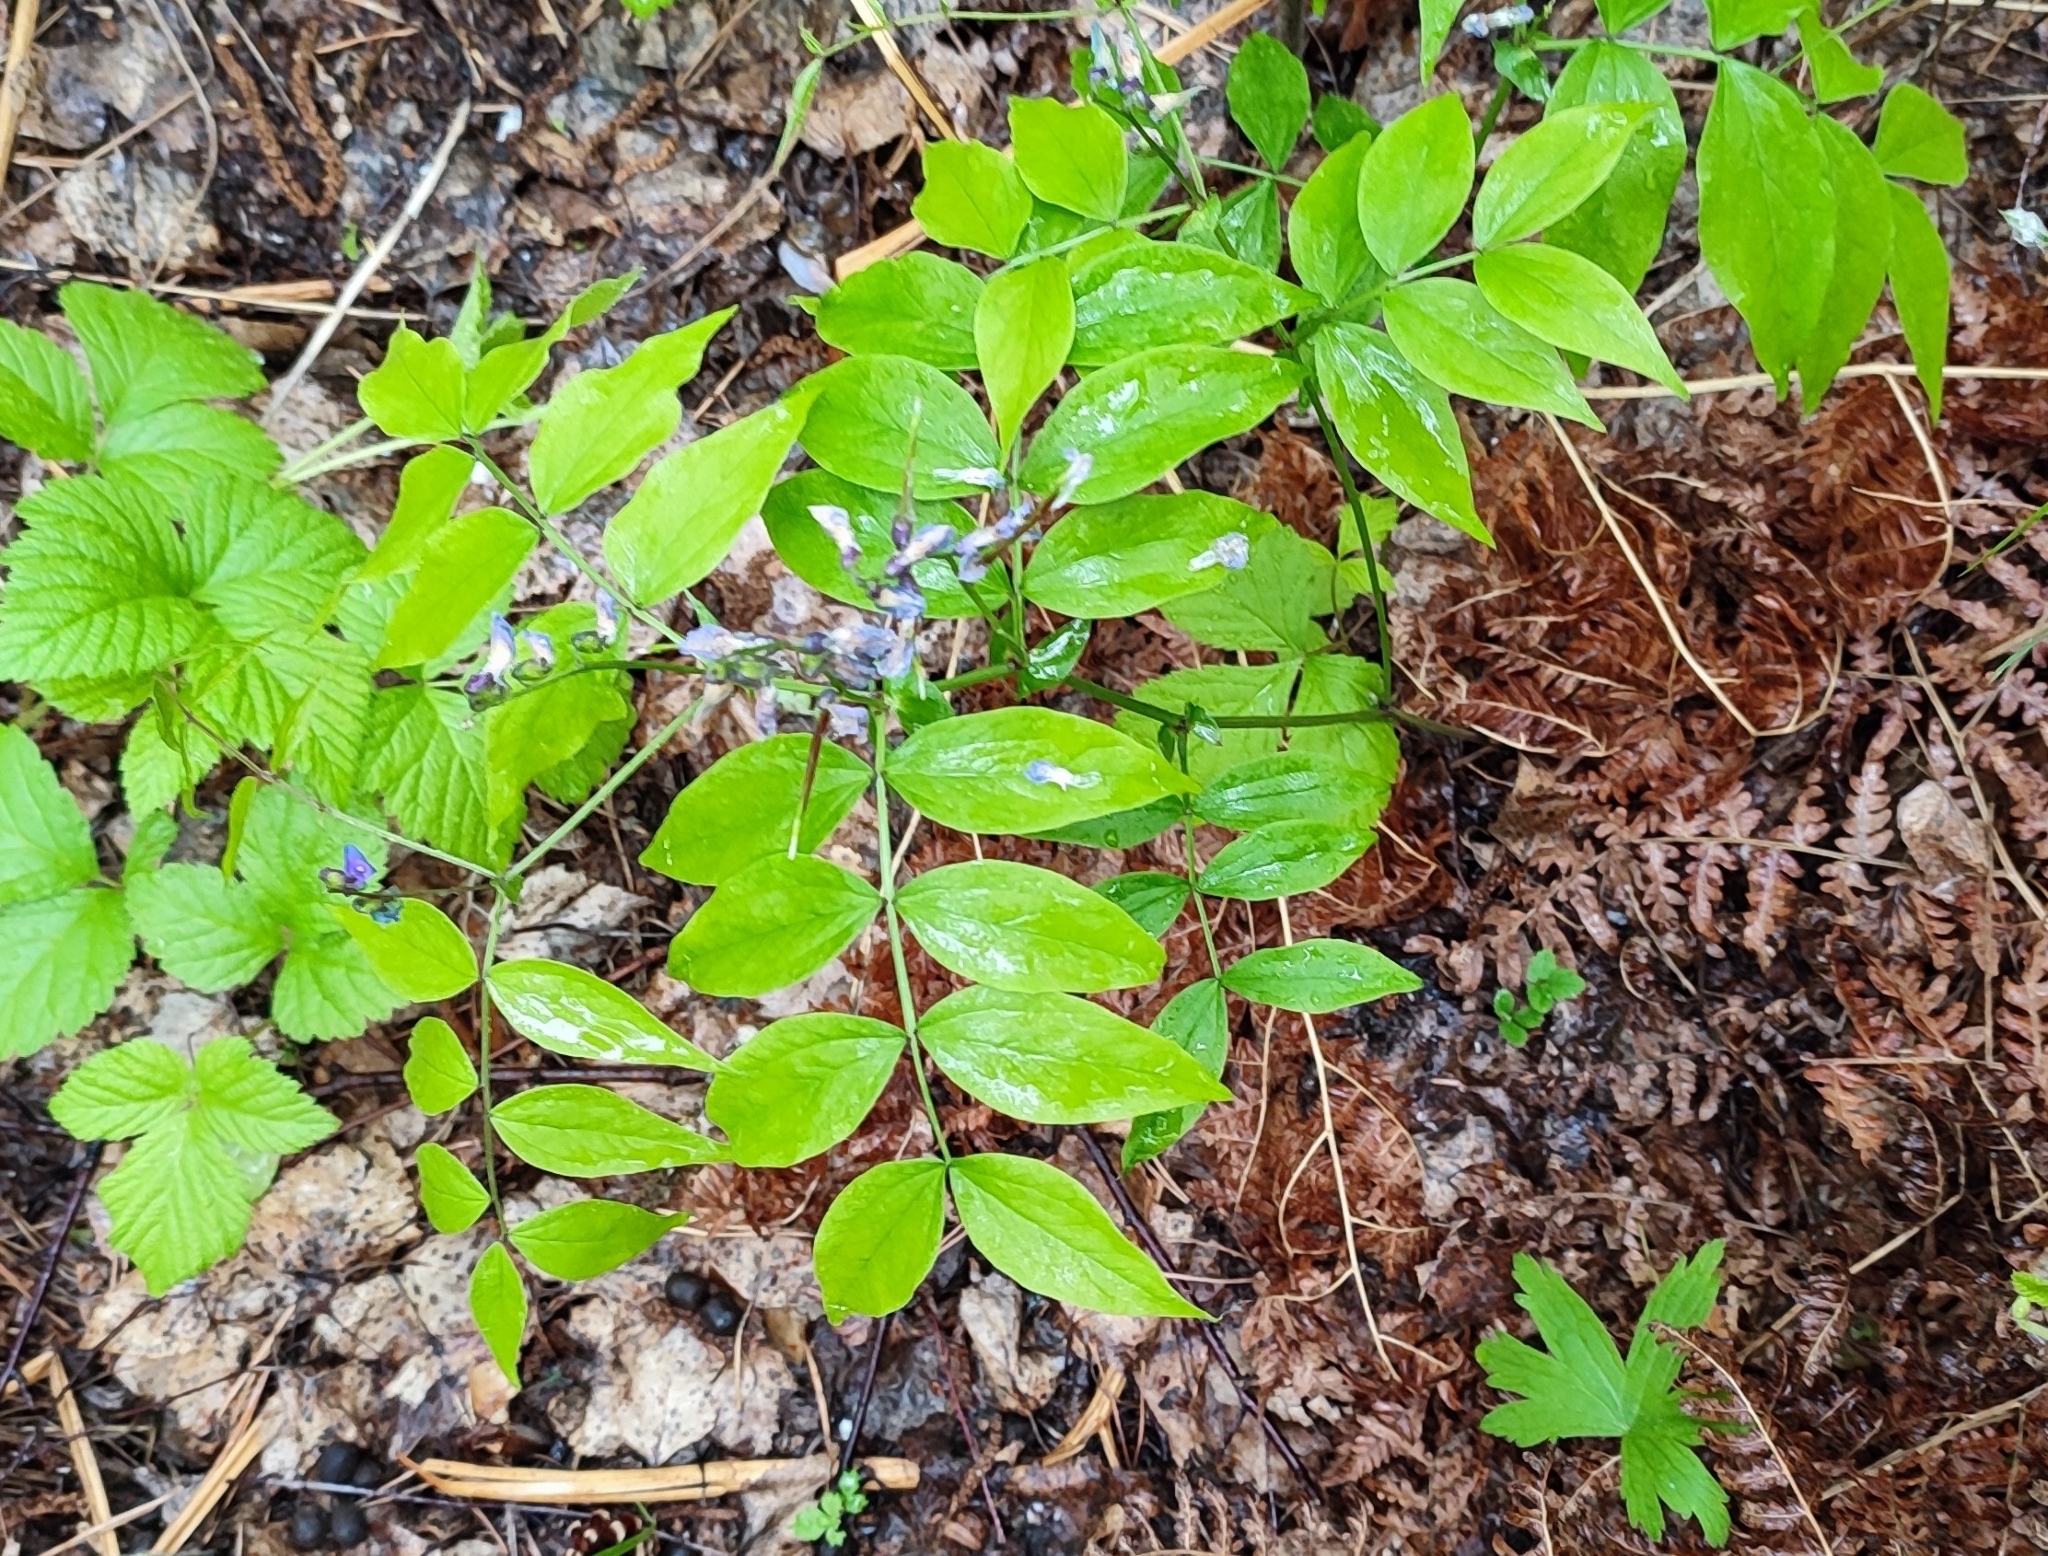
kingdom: Plantae
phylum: Tracheophyta
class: Magnoliopsida
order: Fabales
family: Fabaceae
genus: Lathyrus
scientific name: Lathyrus vernus
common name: Spring pea
